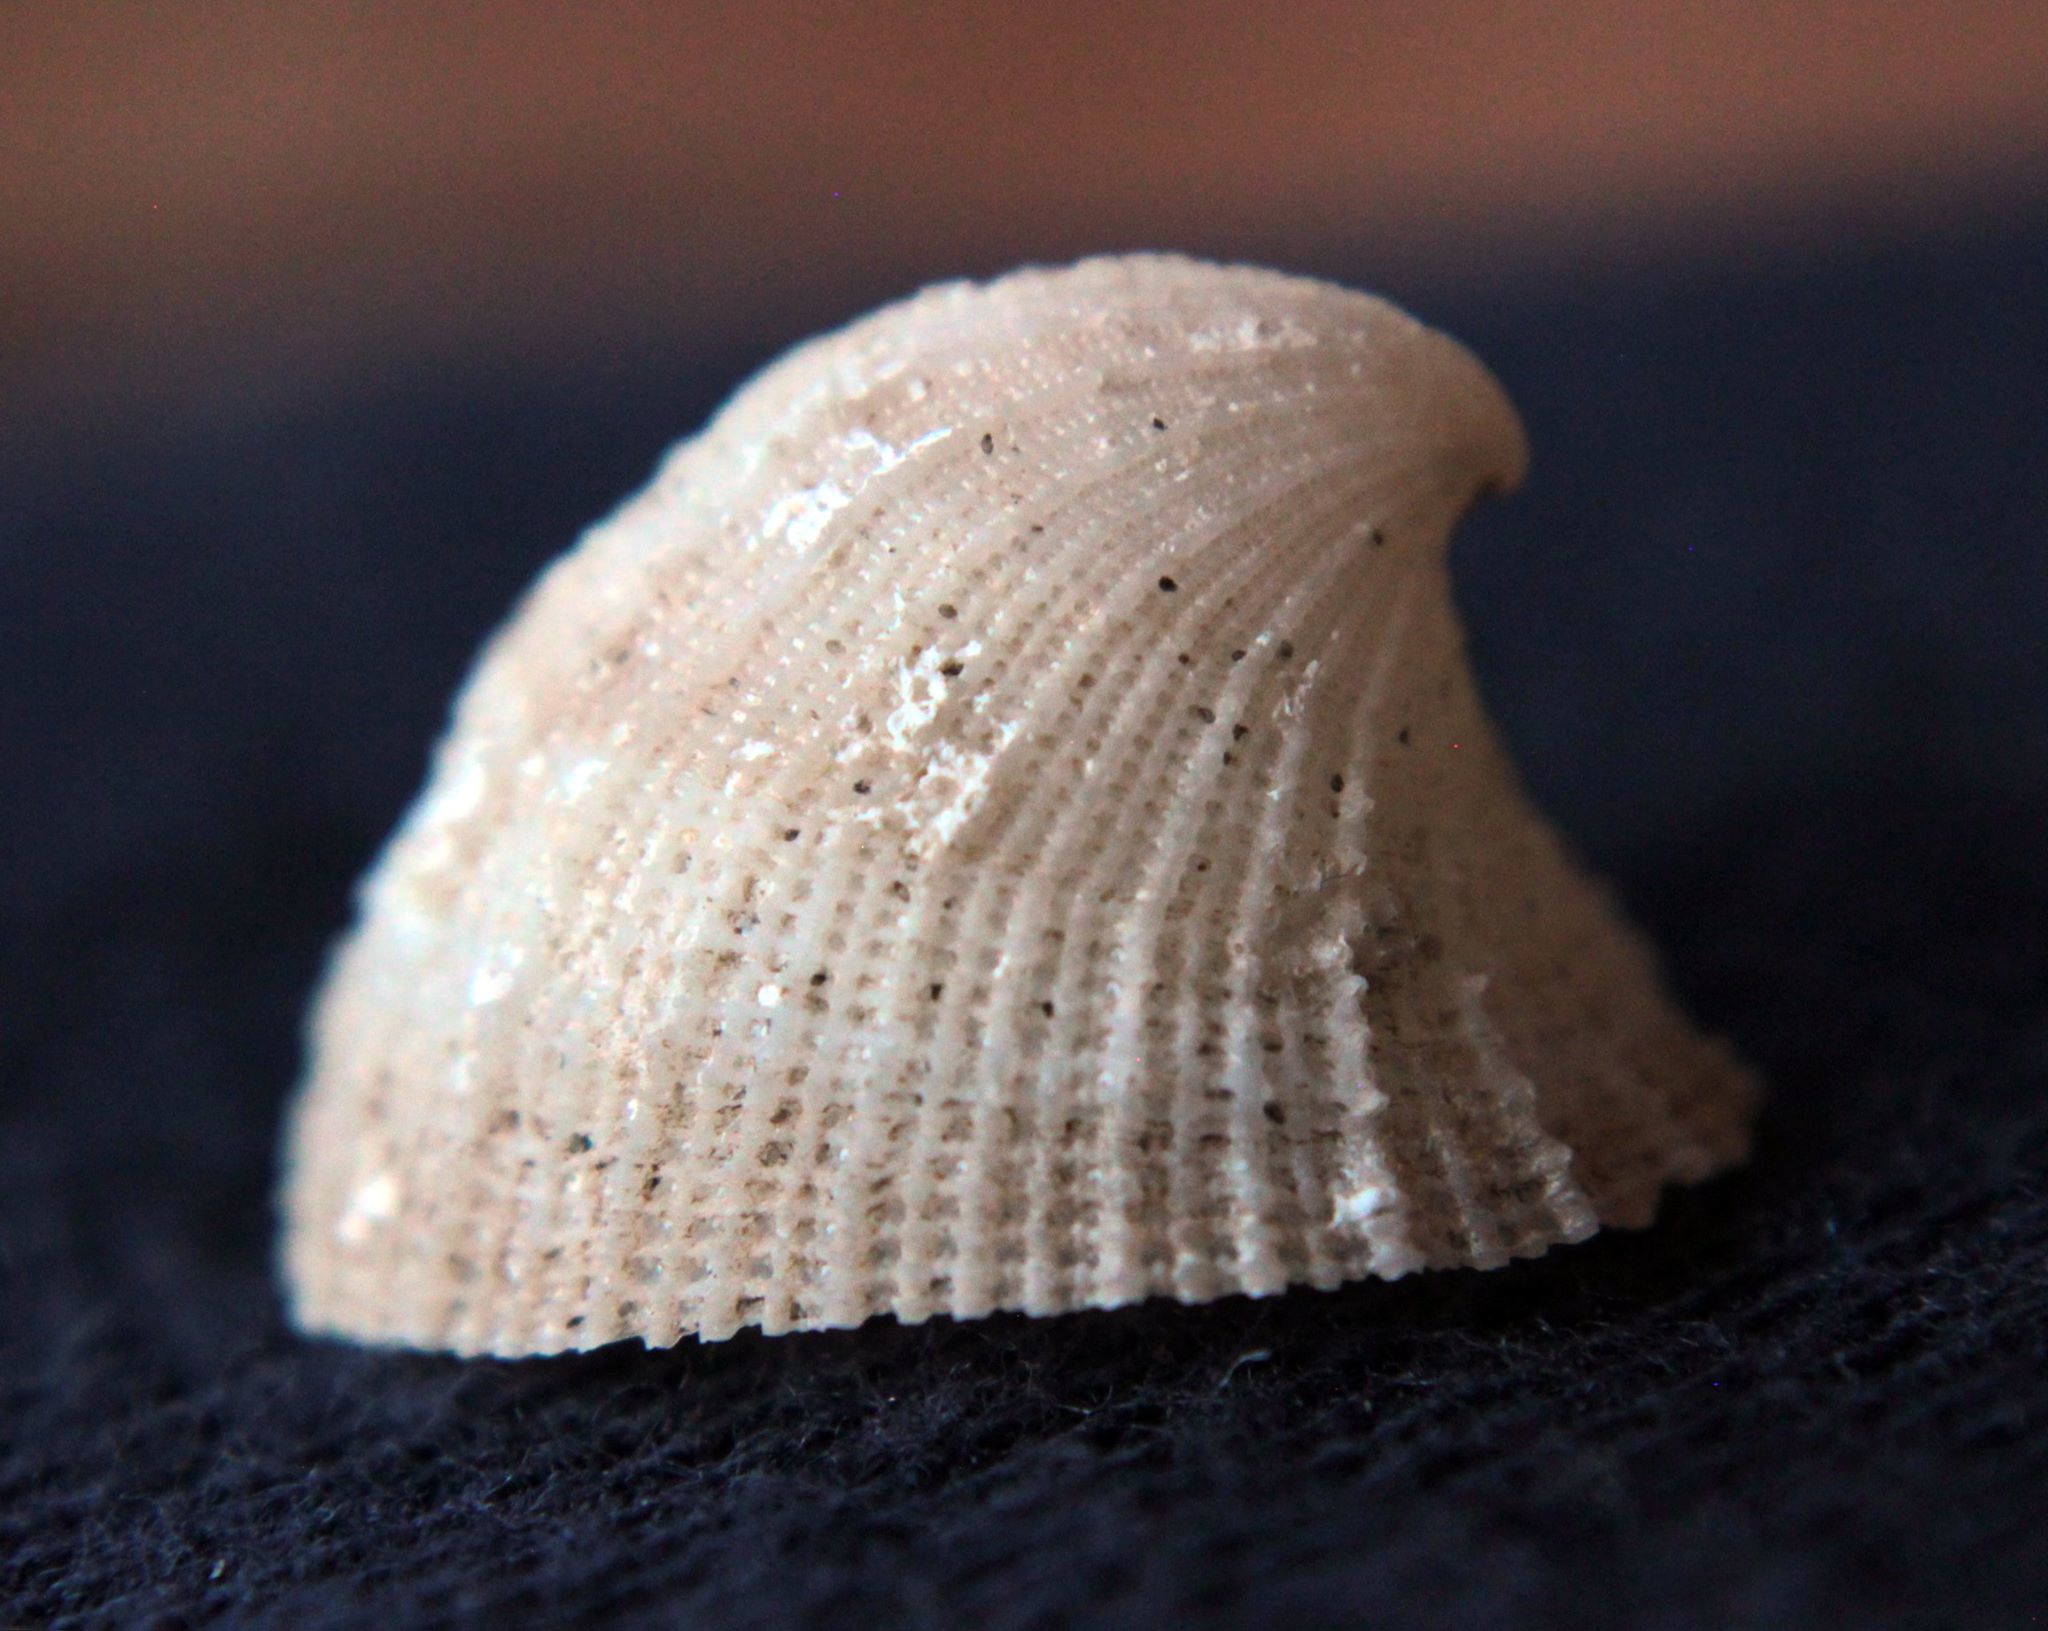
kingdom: Animalia
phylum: Mollusca
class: Gastropoda
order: Lepetellida
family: Fissurellidae
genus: Emarginula
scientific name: Emarginula sicula
